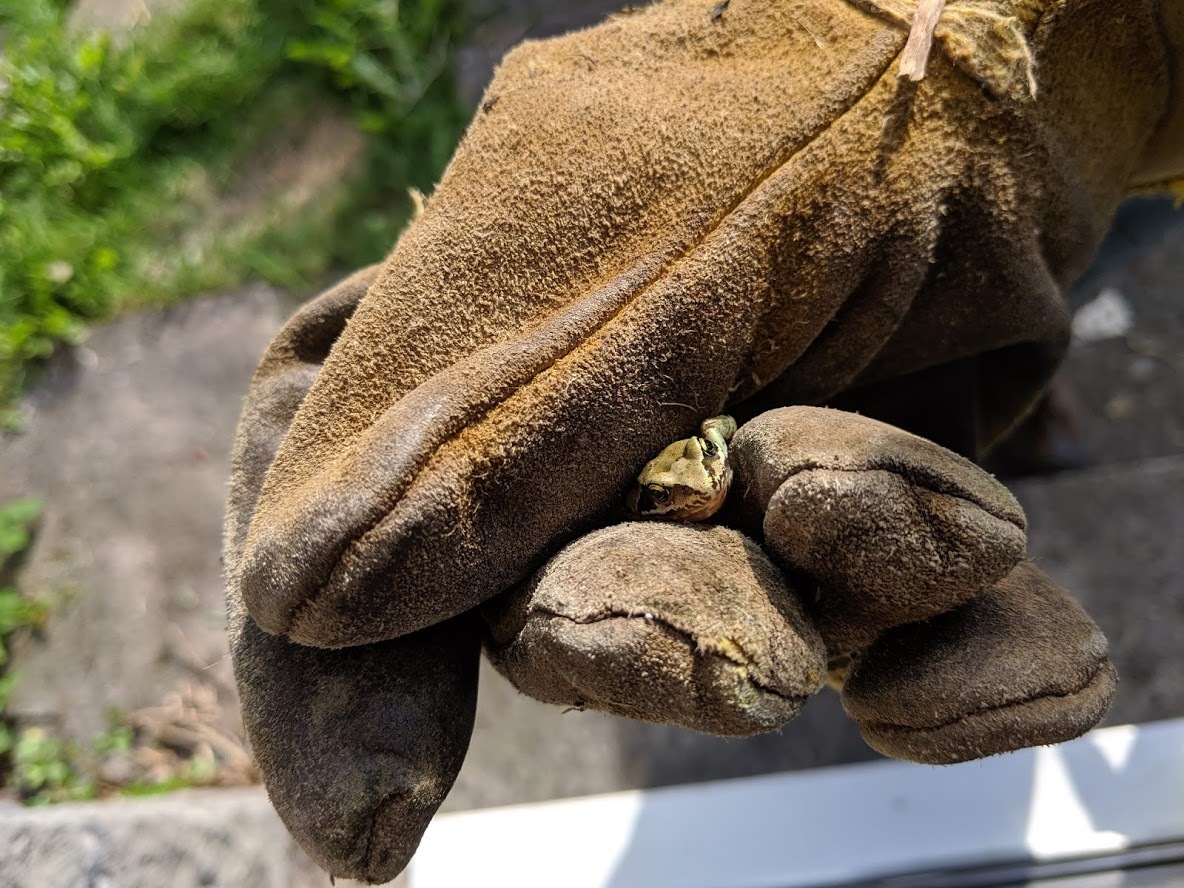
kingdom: Animalia
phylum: Chordata
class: Amphibia
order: Anura
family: Ranidae
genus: Rana
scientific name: Rana temporaria
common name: Common frog
